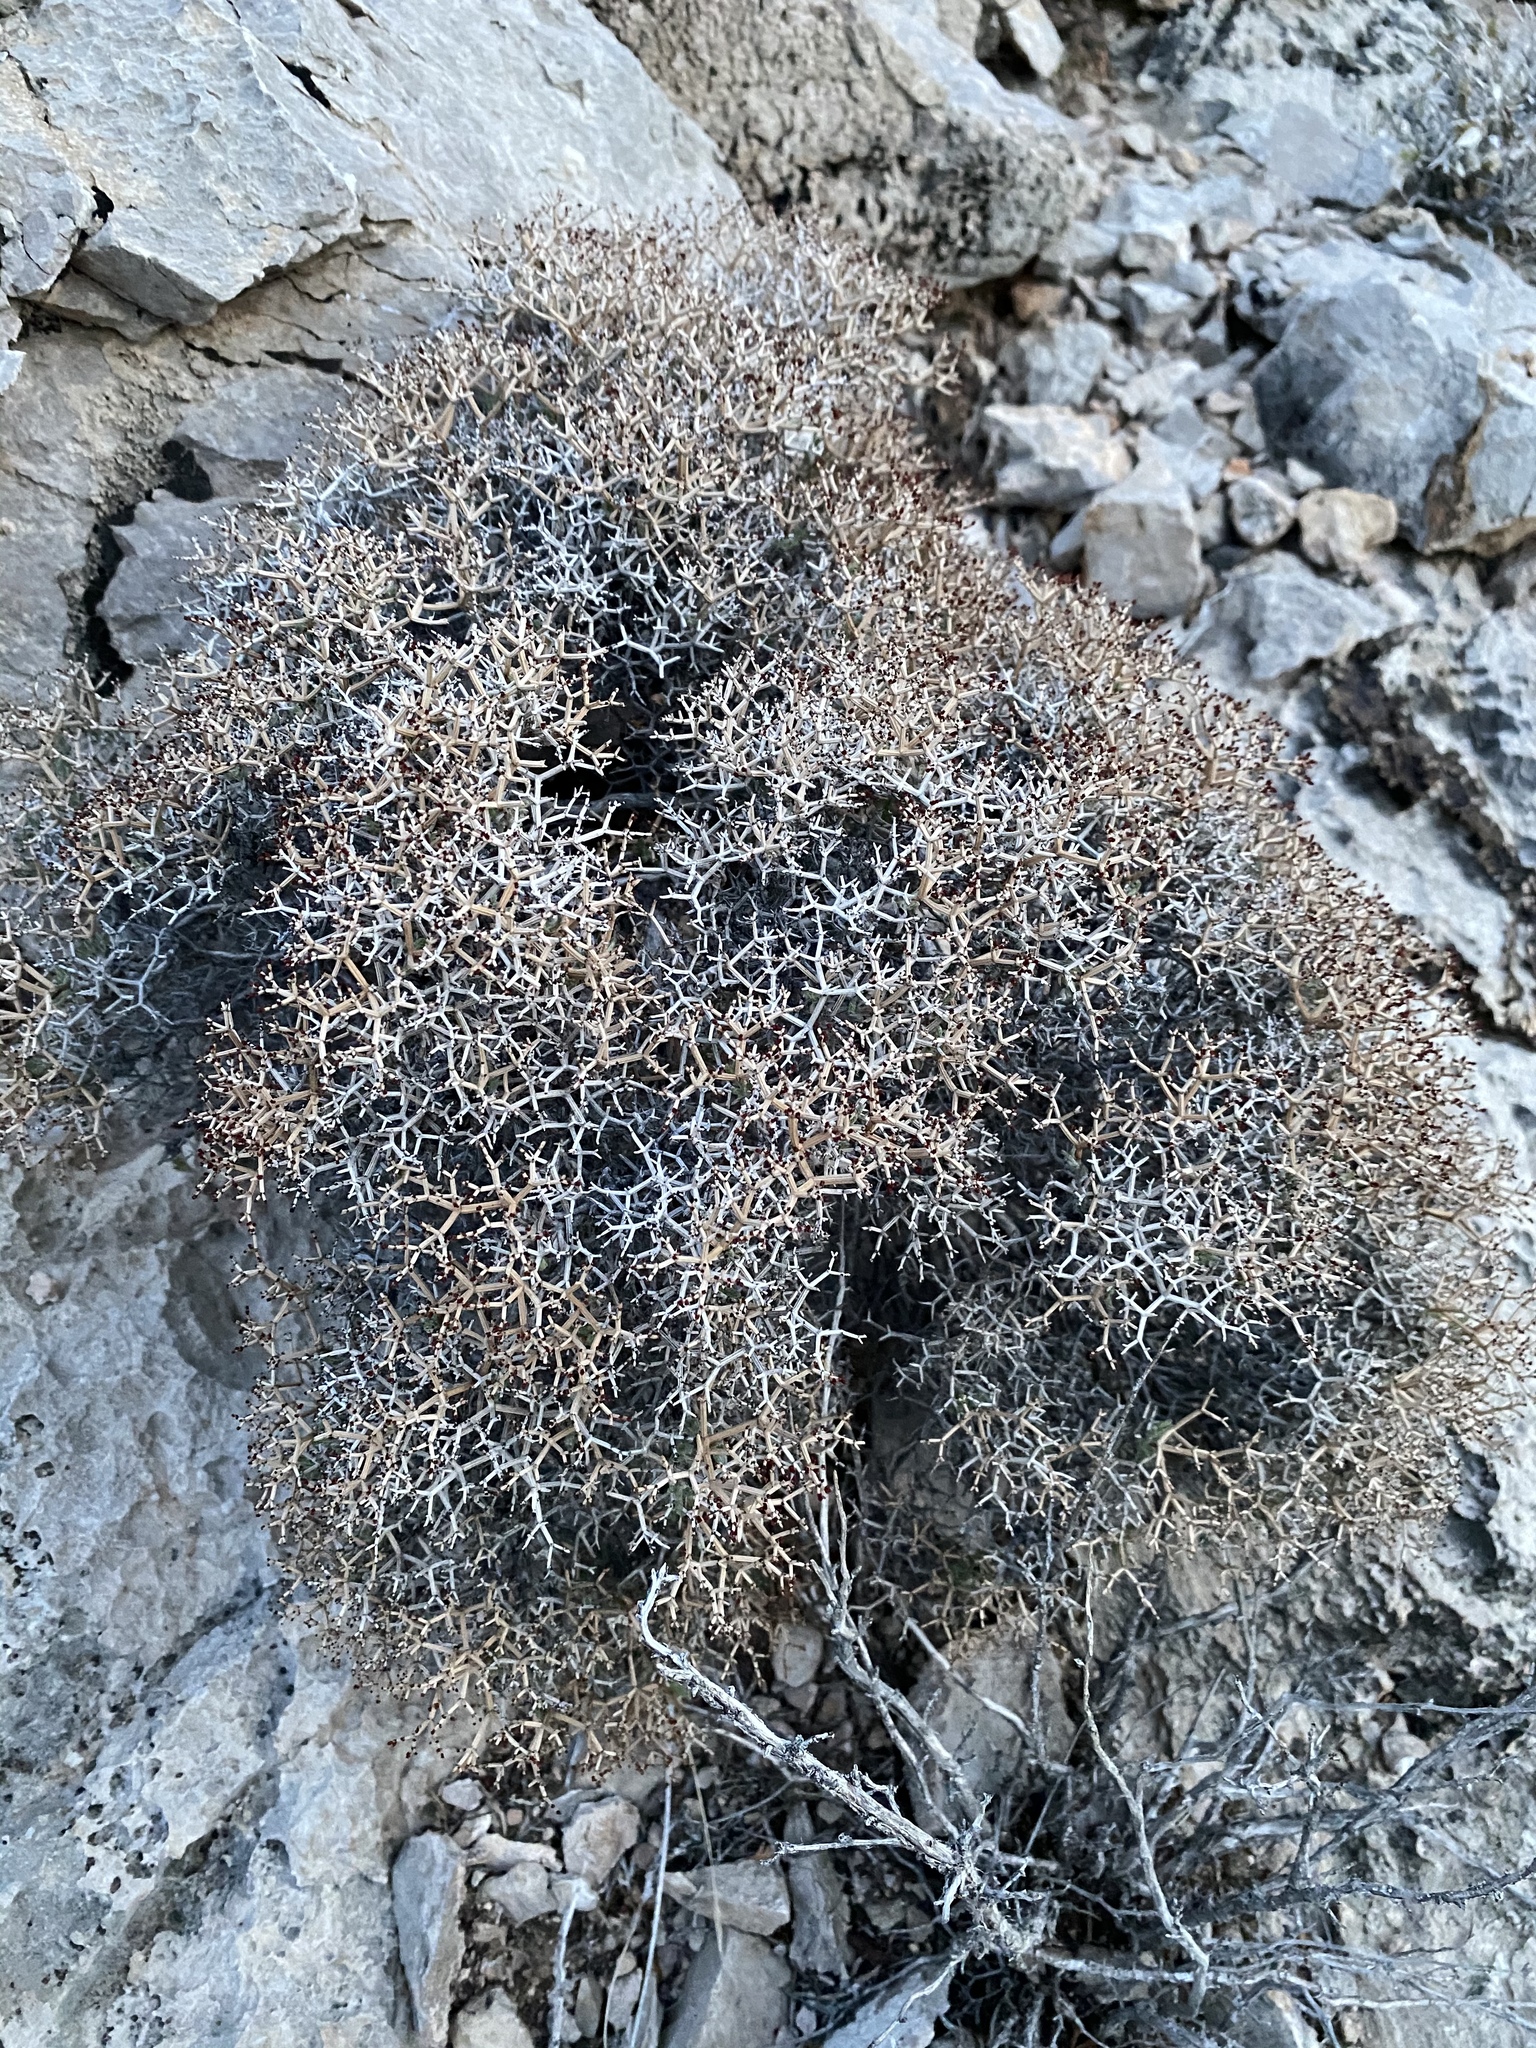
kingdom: Plantae
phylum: Tracheophyta
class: Magnoliopsida
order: Caryophyllales
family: Polygonaceae
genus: Eriogonum
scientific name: Eriogonum heermannii
